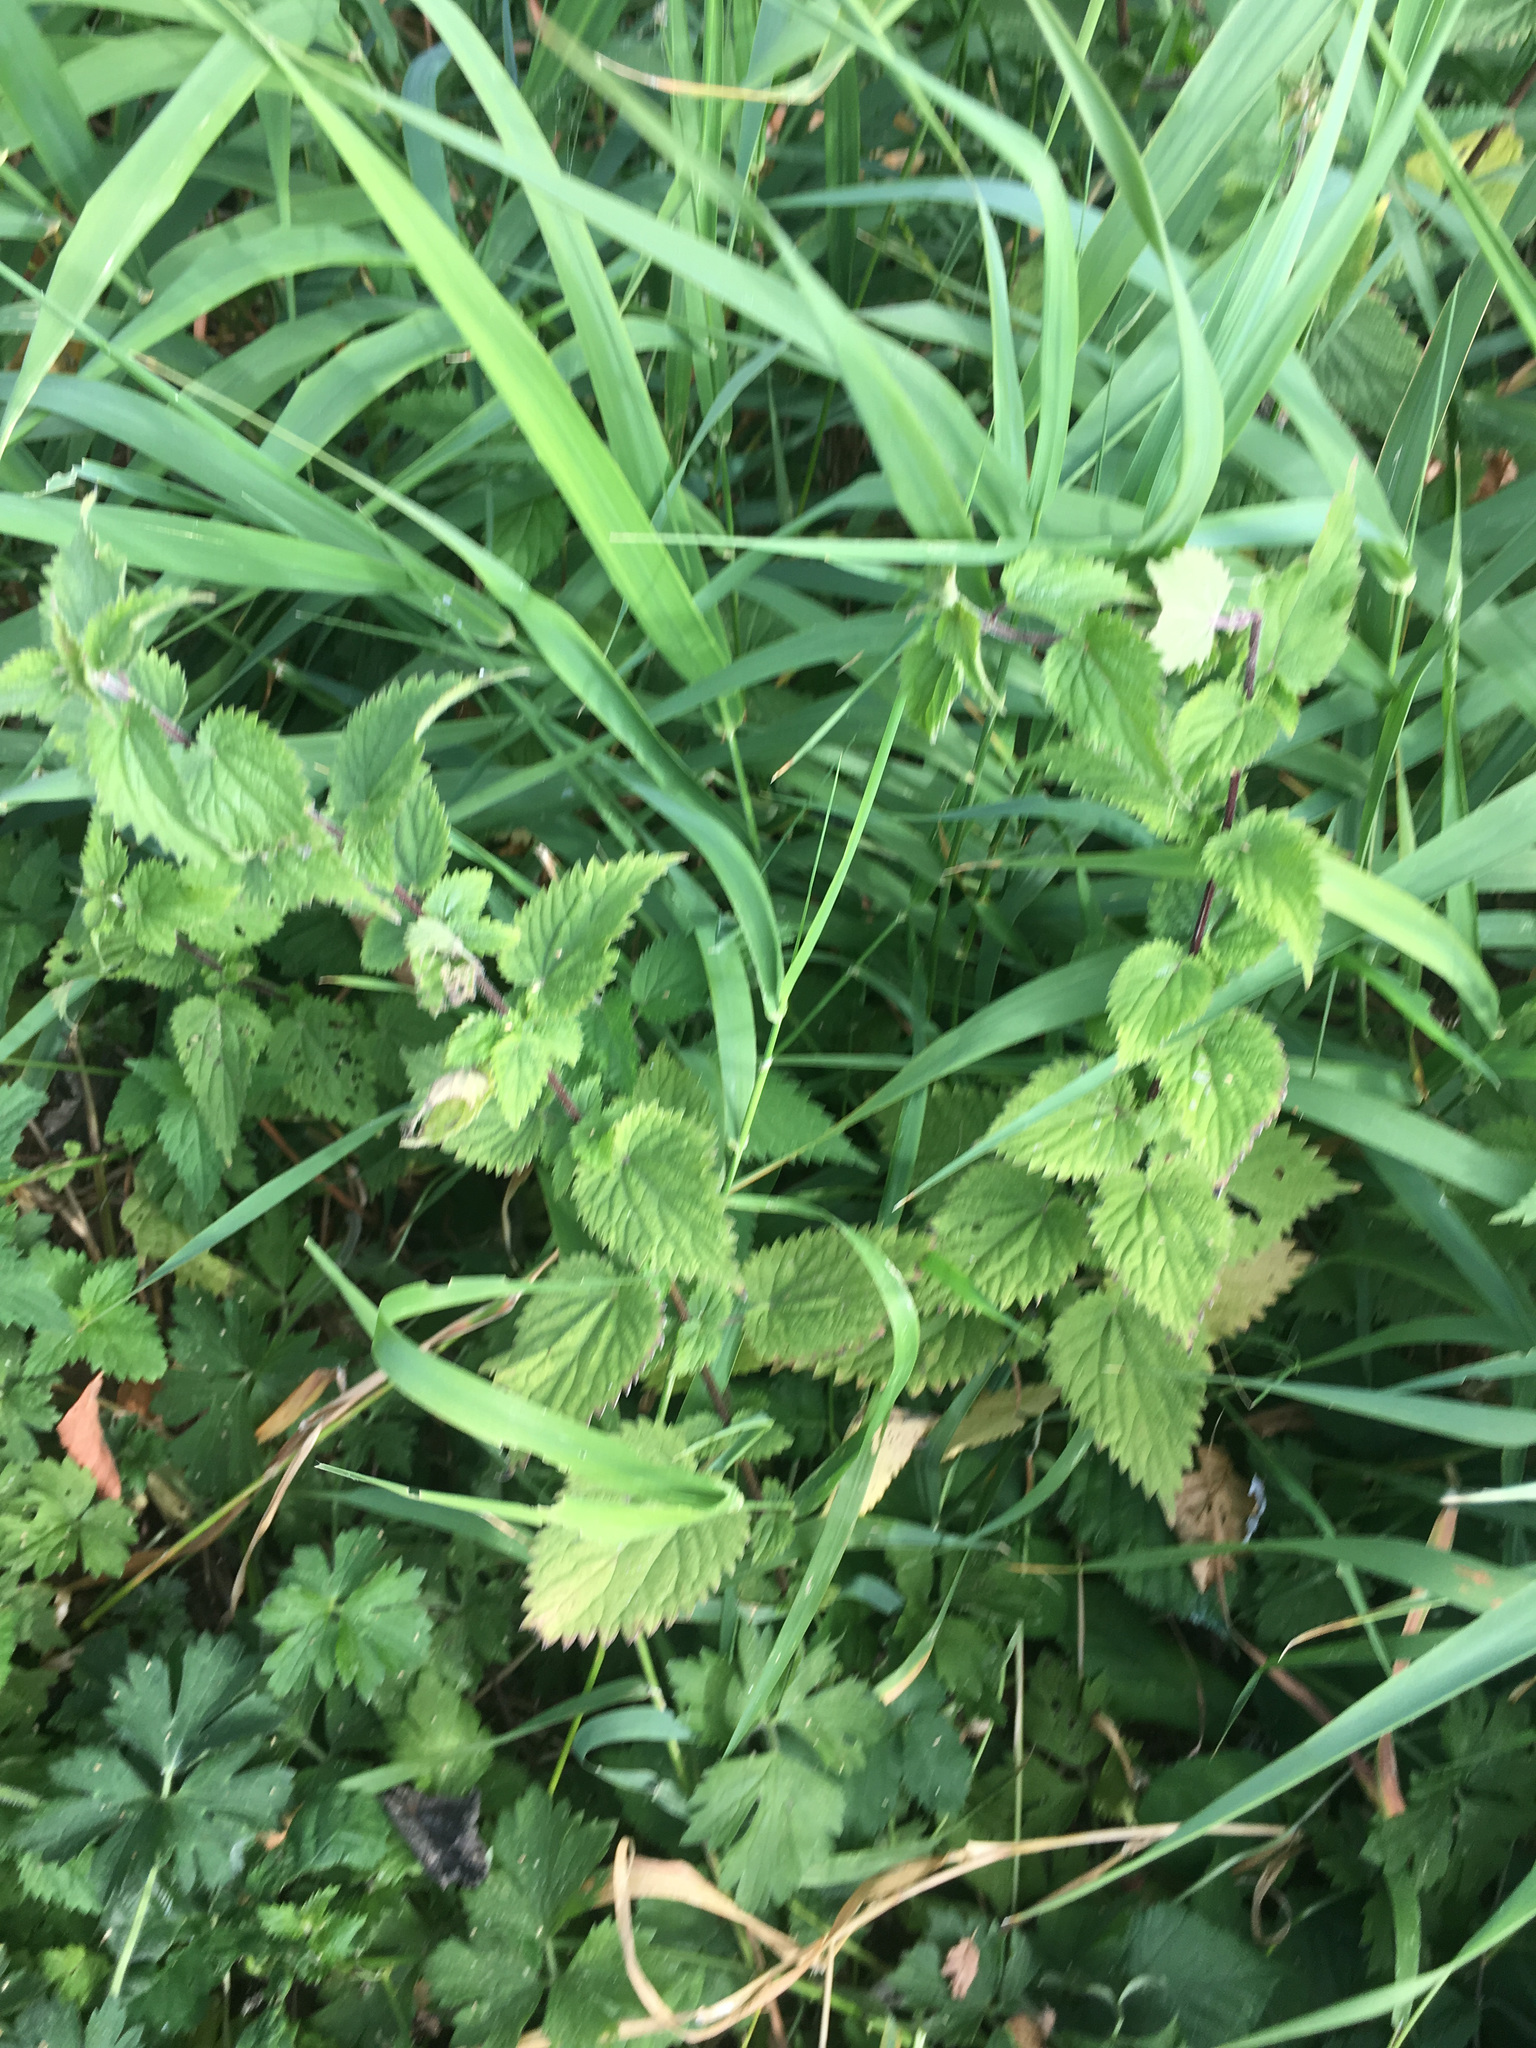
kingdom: Plantae
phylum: Tracheophyta
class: Magnoliopsida
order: Rosales
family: Urticaceae
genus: Urtica
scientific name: Urtica dioica
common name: Common nettle
